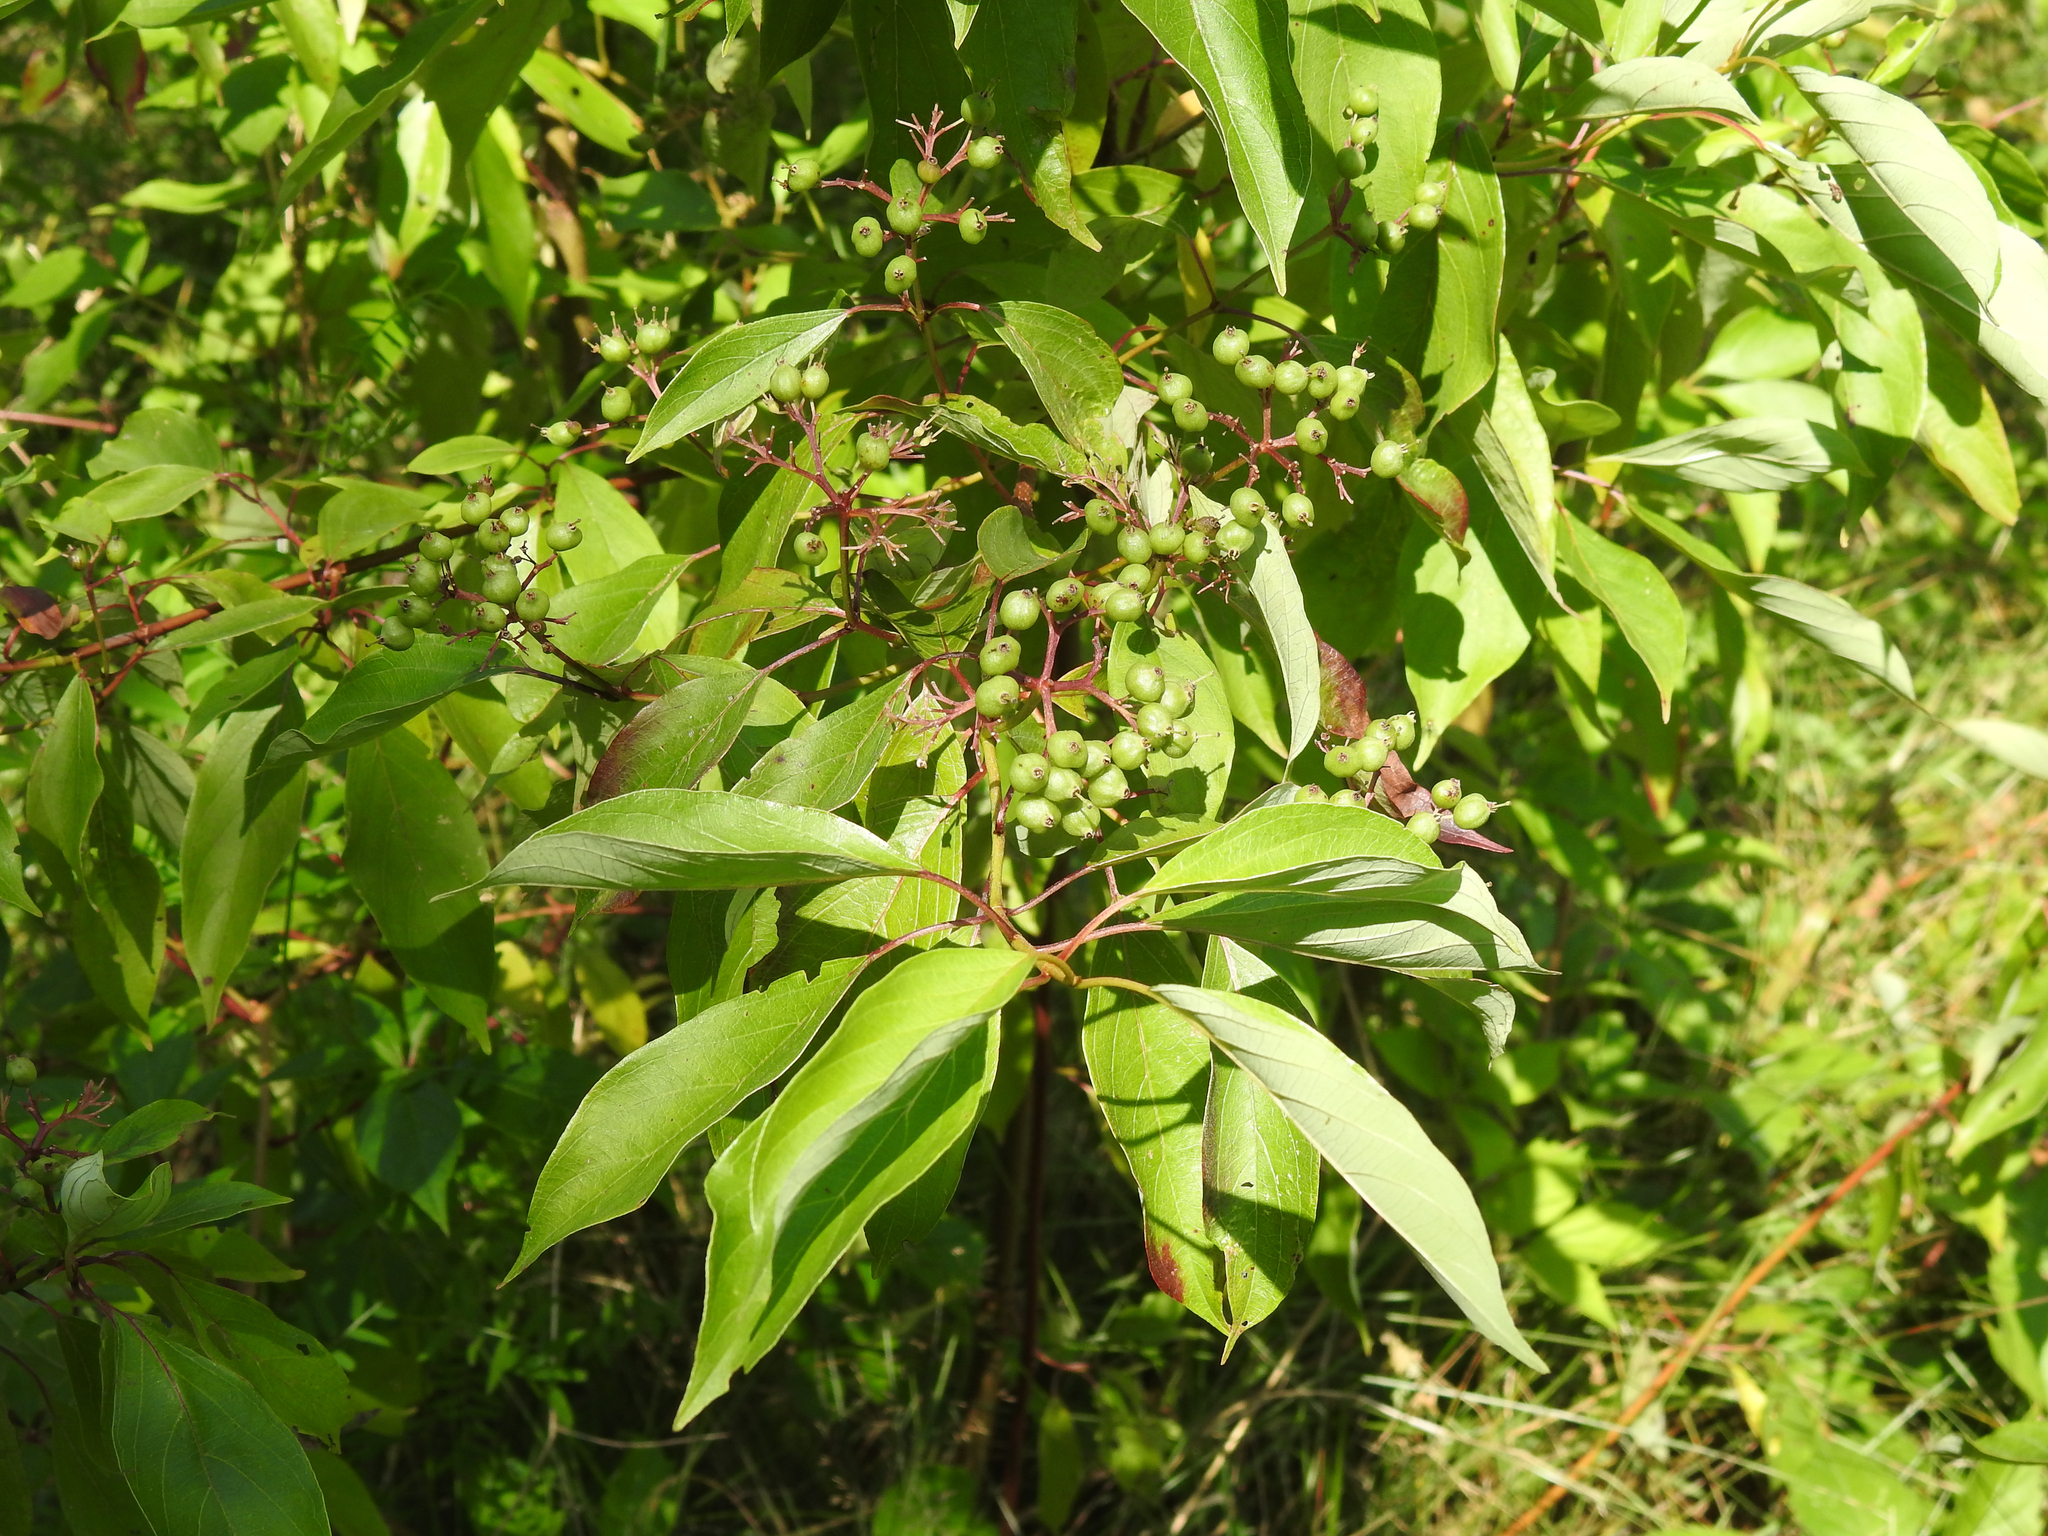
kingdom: Plantae
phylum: Tracheophyta
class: Magnoliopsida
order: Dipsacales
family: Viburnaceae
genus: Sambucus
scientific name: Sambucus canadensis
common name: American elder
